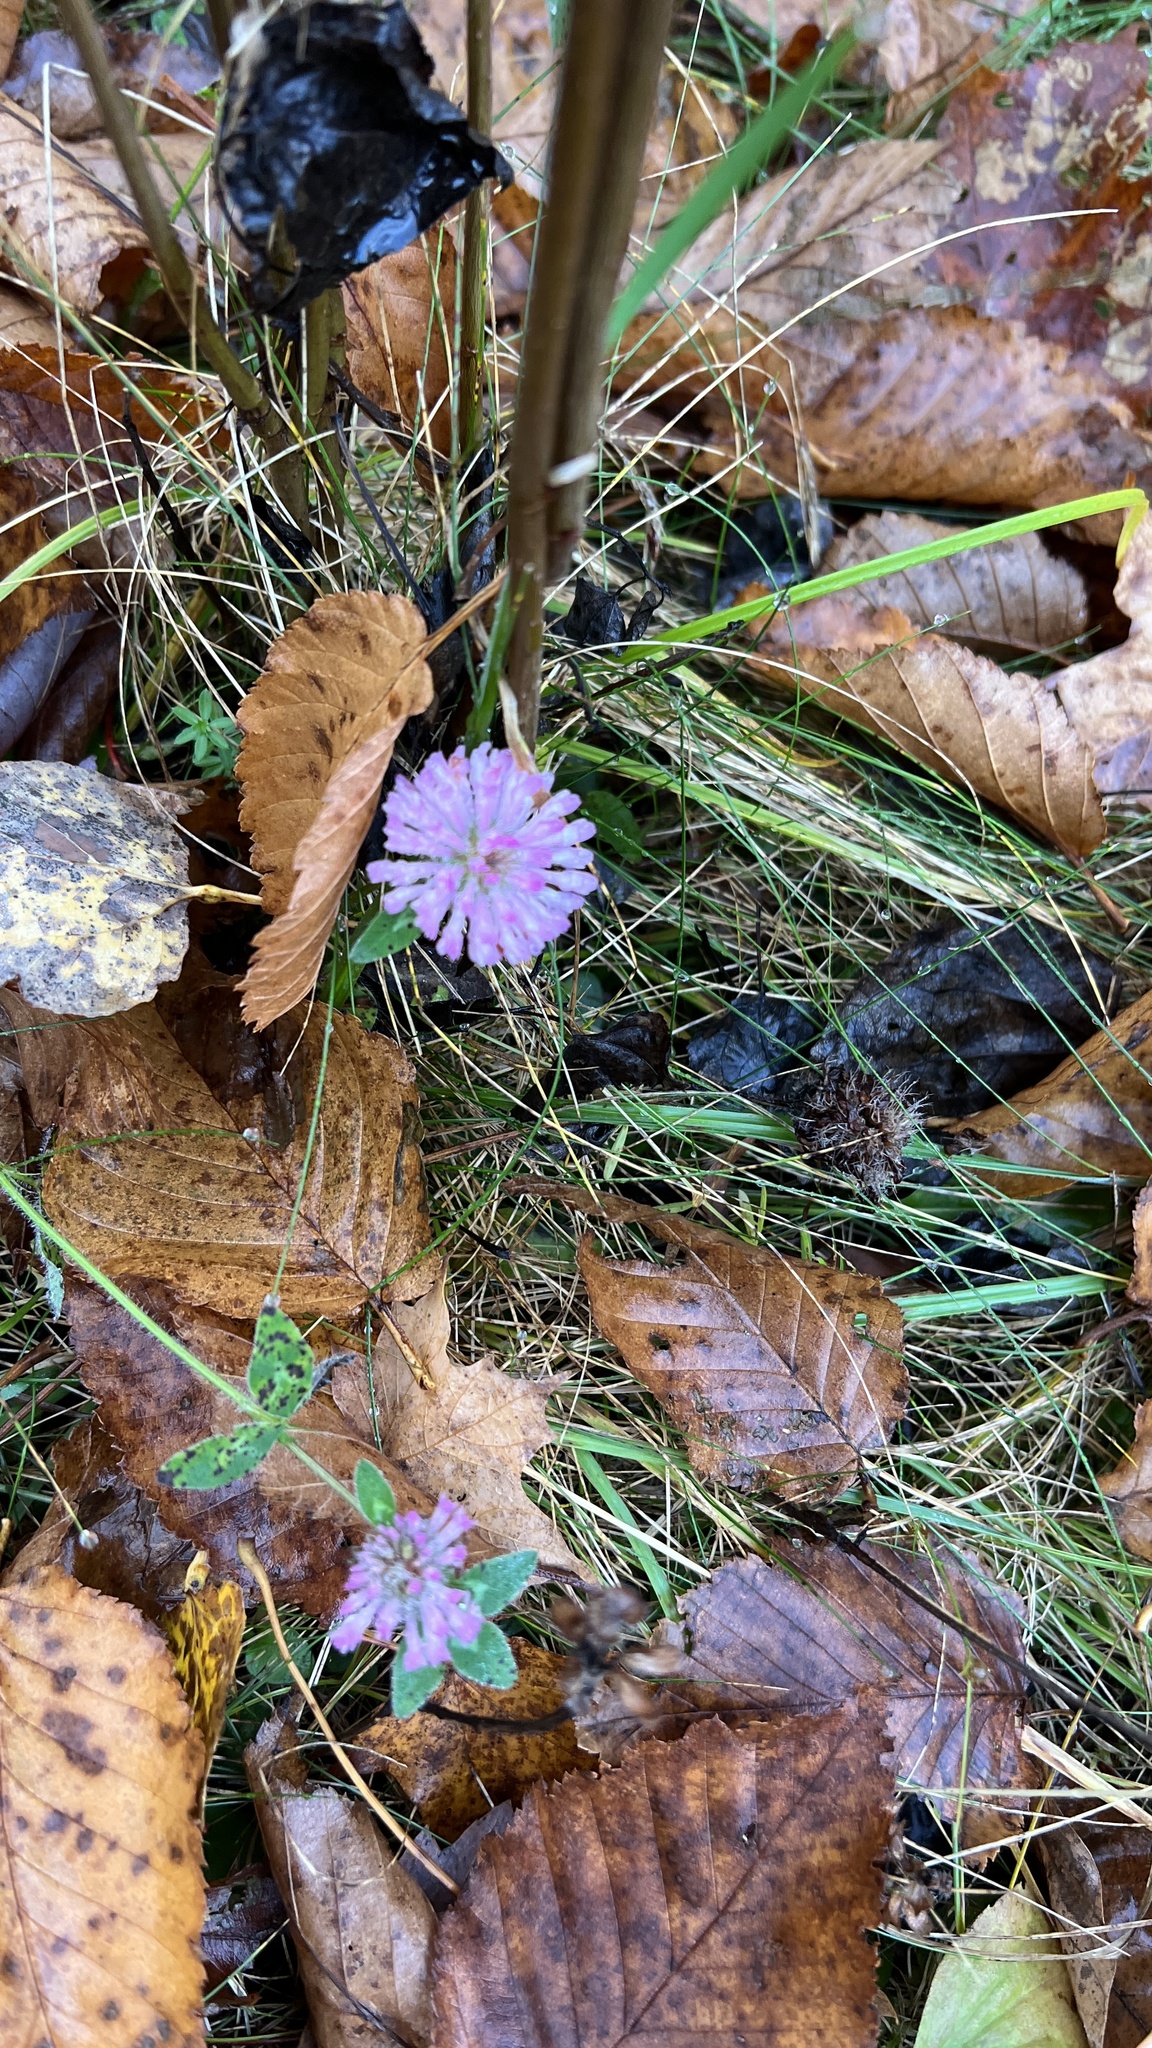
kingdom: Plantae
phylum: Tracheophyta
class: Magnoliopsida
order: Fabales
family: Fabaceae
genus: Trifolium
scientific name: Trifolium pratense
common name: Red clover
